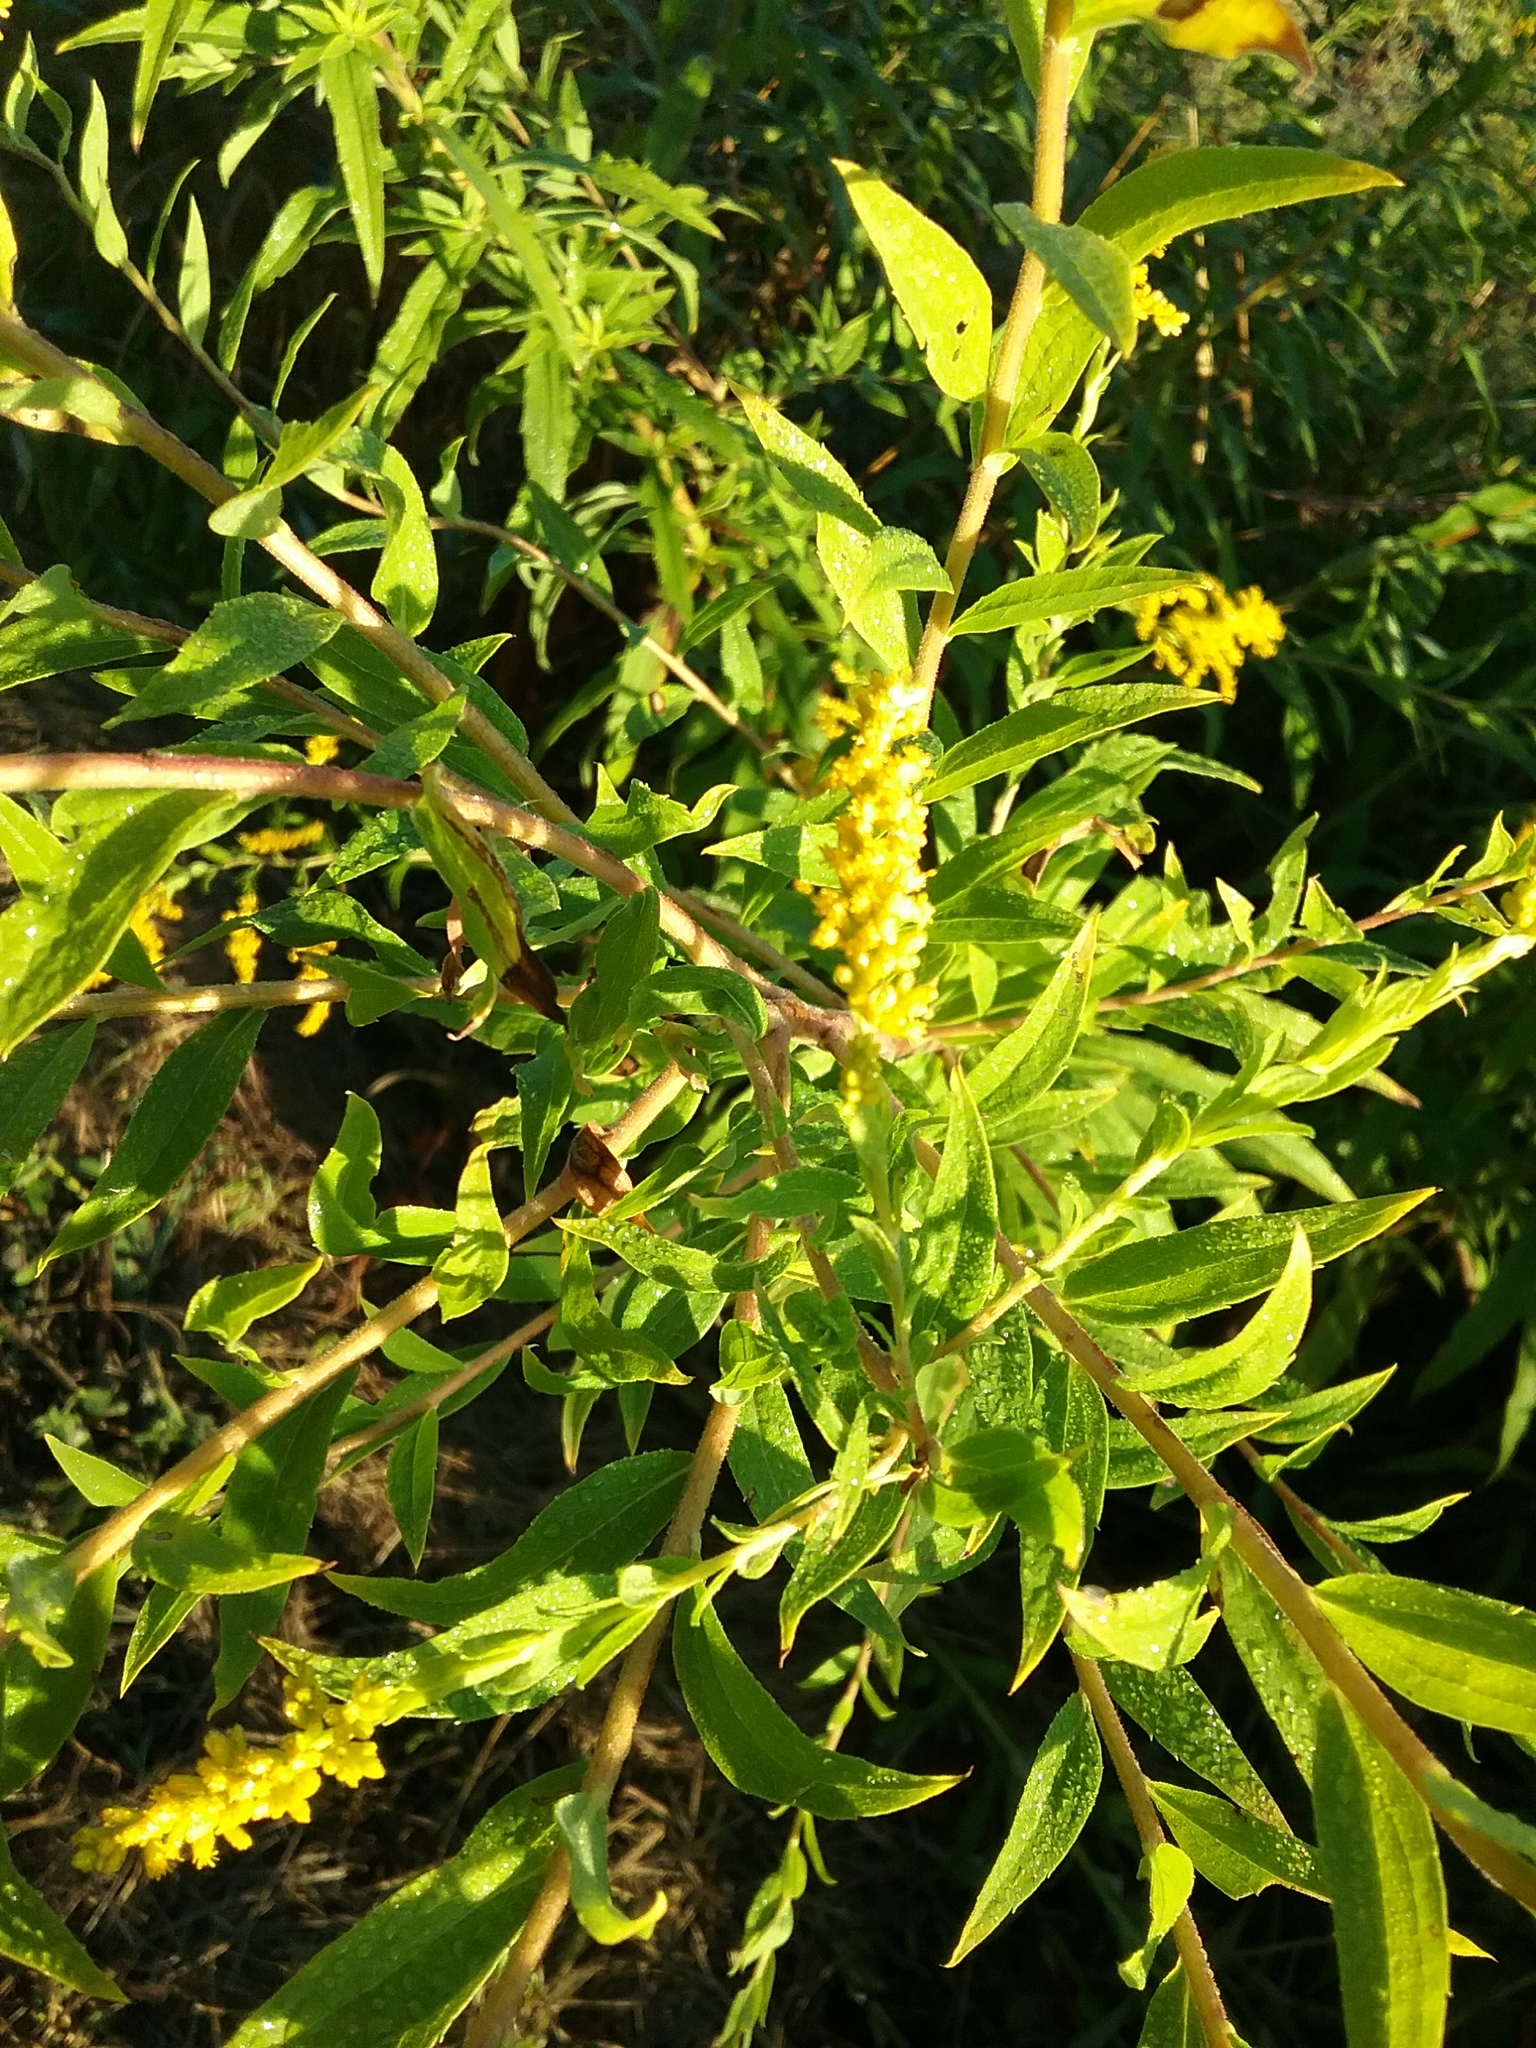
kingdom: Plantae
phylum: Tracheophyta
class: Magnoliopsida
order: Asterales
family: Asteraceae
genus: Solidago
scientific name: Solidago canadensis
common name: Canada goldenrod
